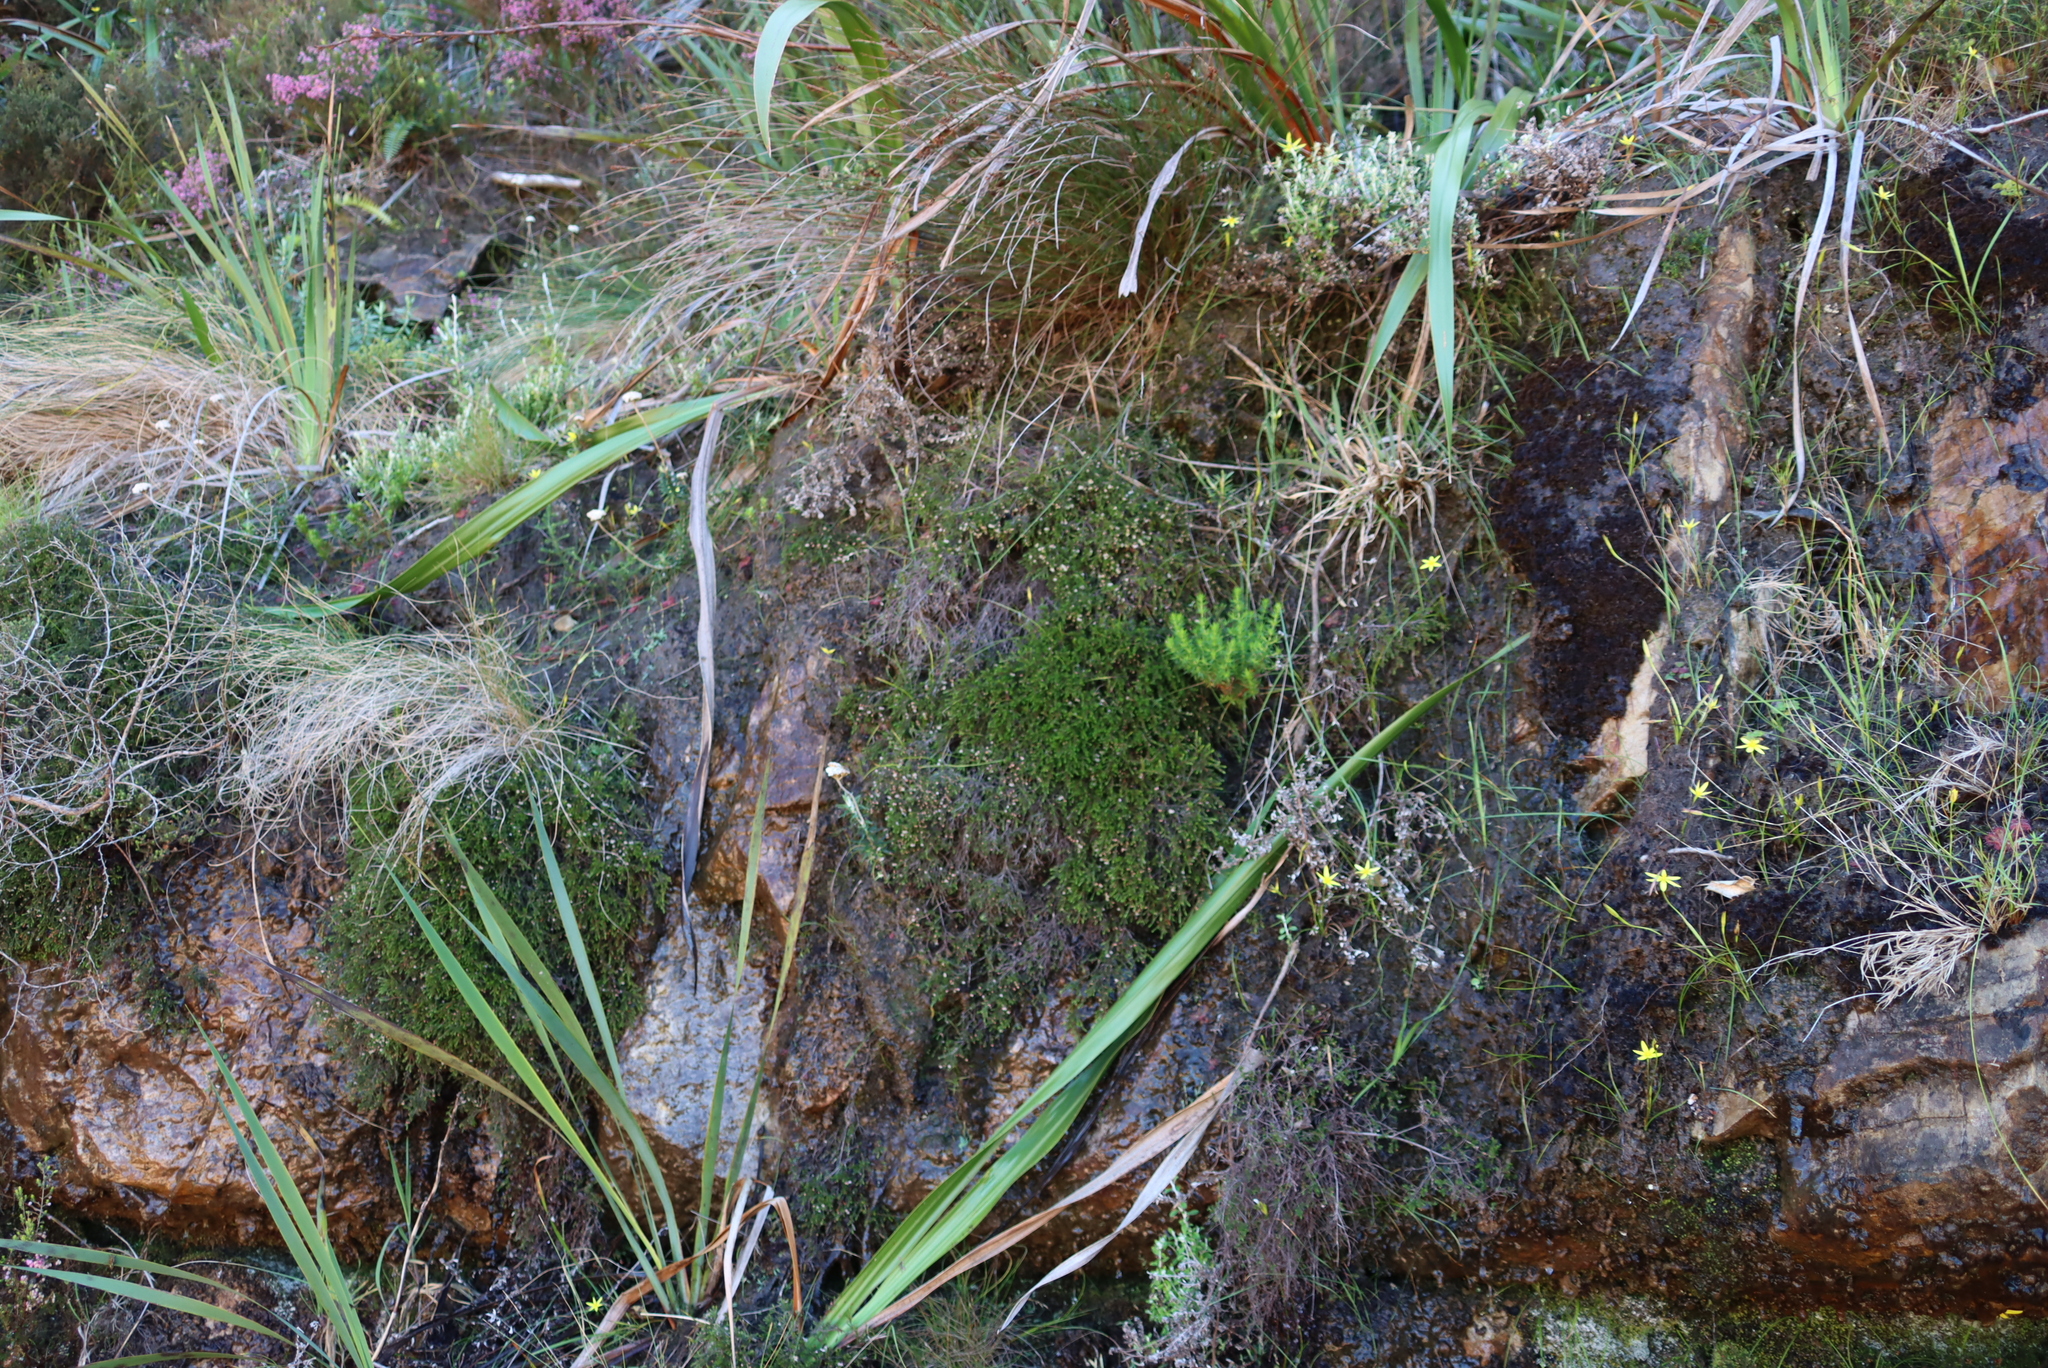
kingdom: Plantae
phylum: Tracheophyta
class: Magnoliopsida
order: Ericales
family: Ericaceae
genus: Erica
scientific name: Erica tenuis
